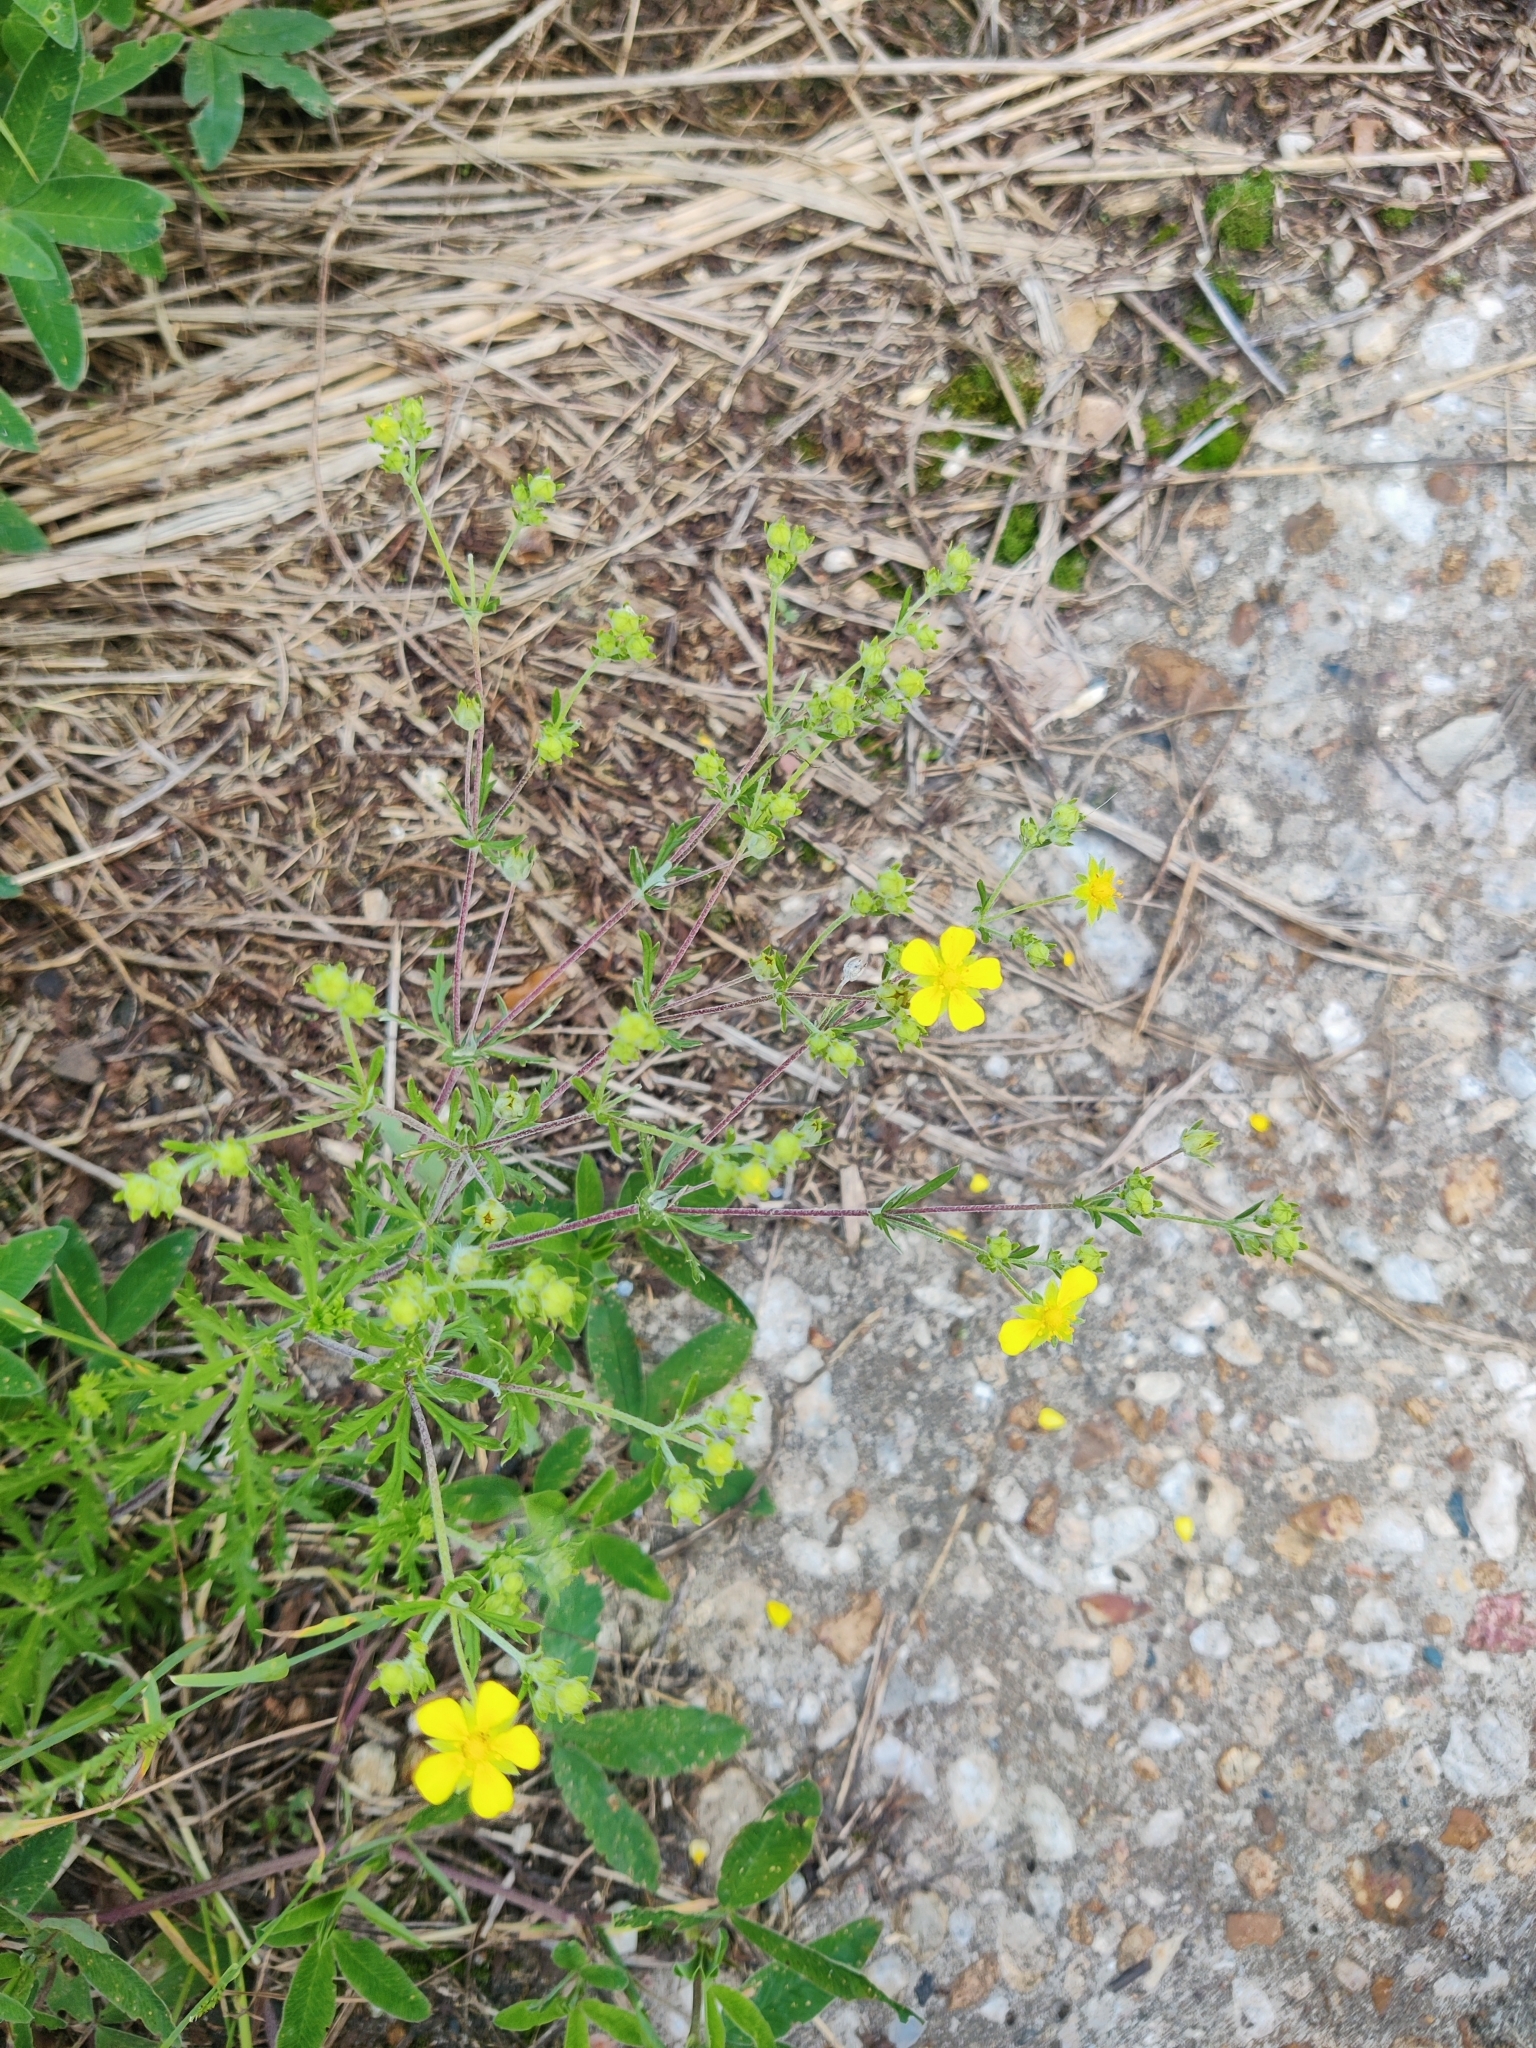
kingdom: Plantae
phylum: Tracheophyta
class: Magnoliopsida
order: Rosales
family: Rosaceae
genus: Potentilla
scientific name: Potentilla argentea
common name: Hoary cinquefoil
